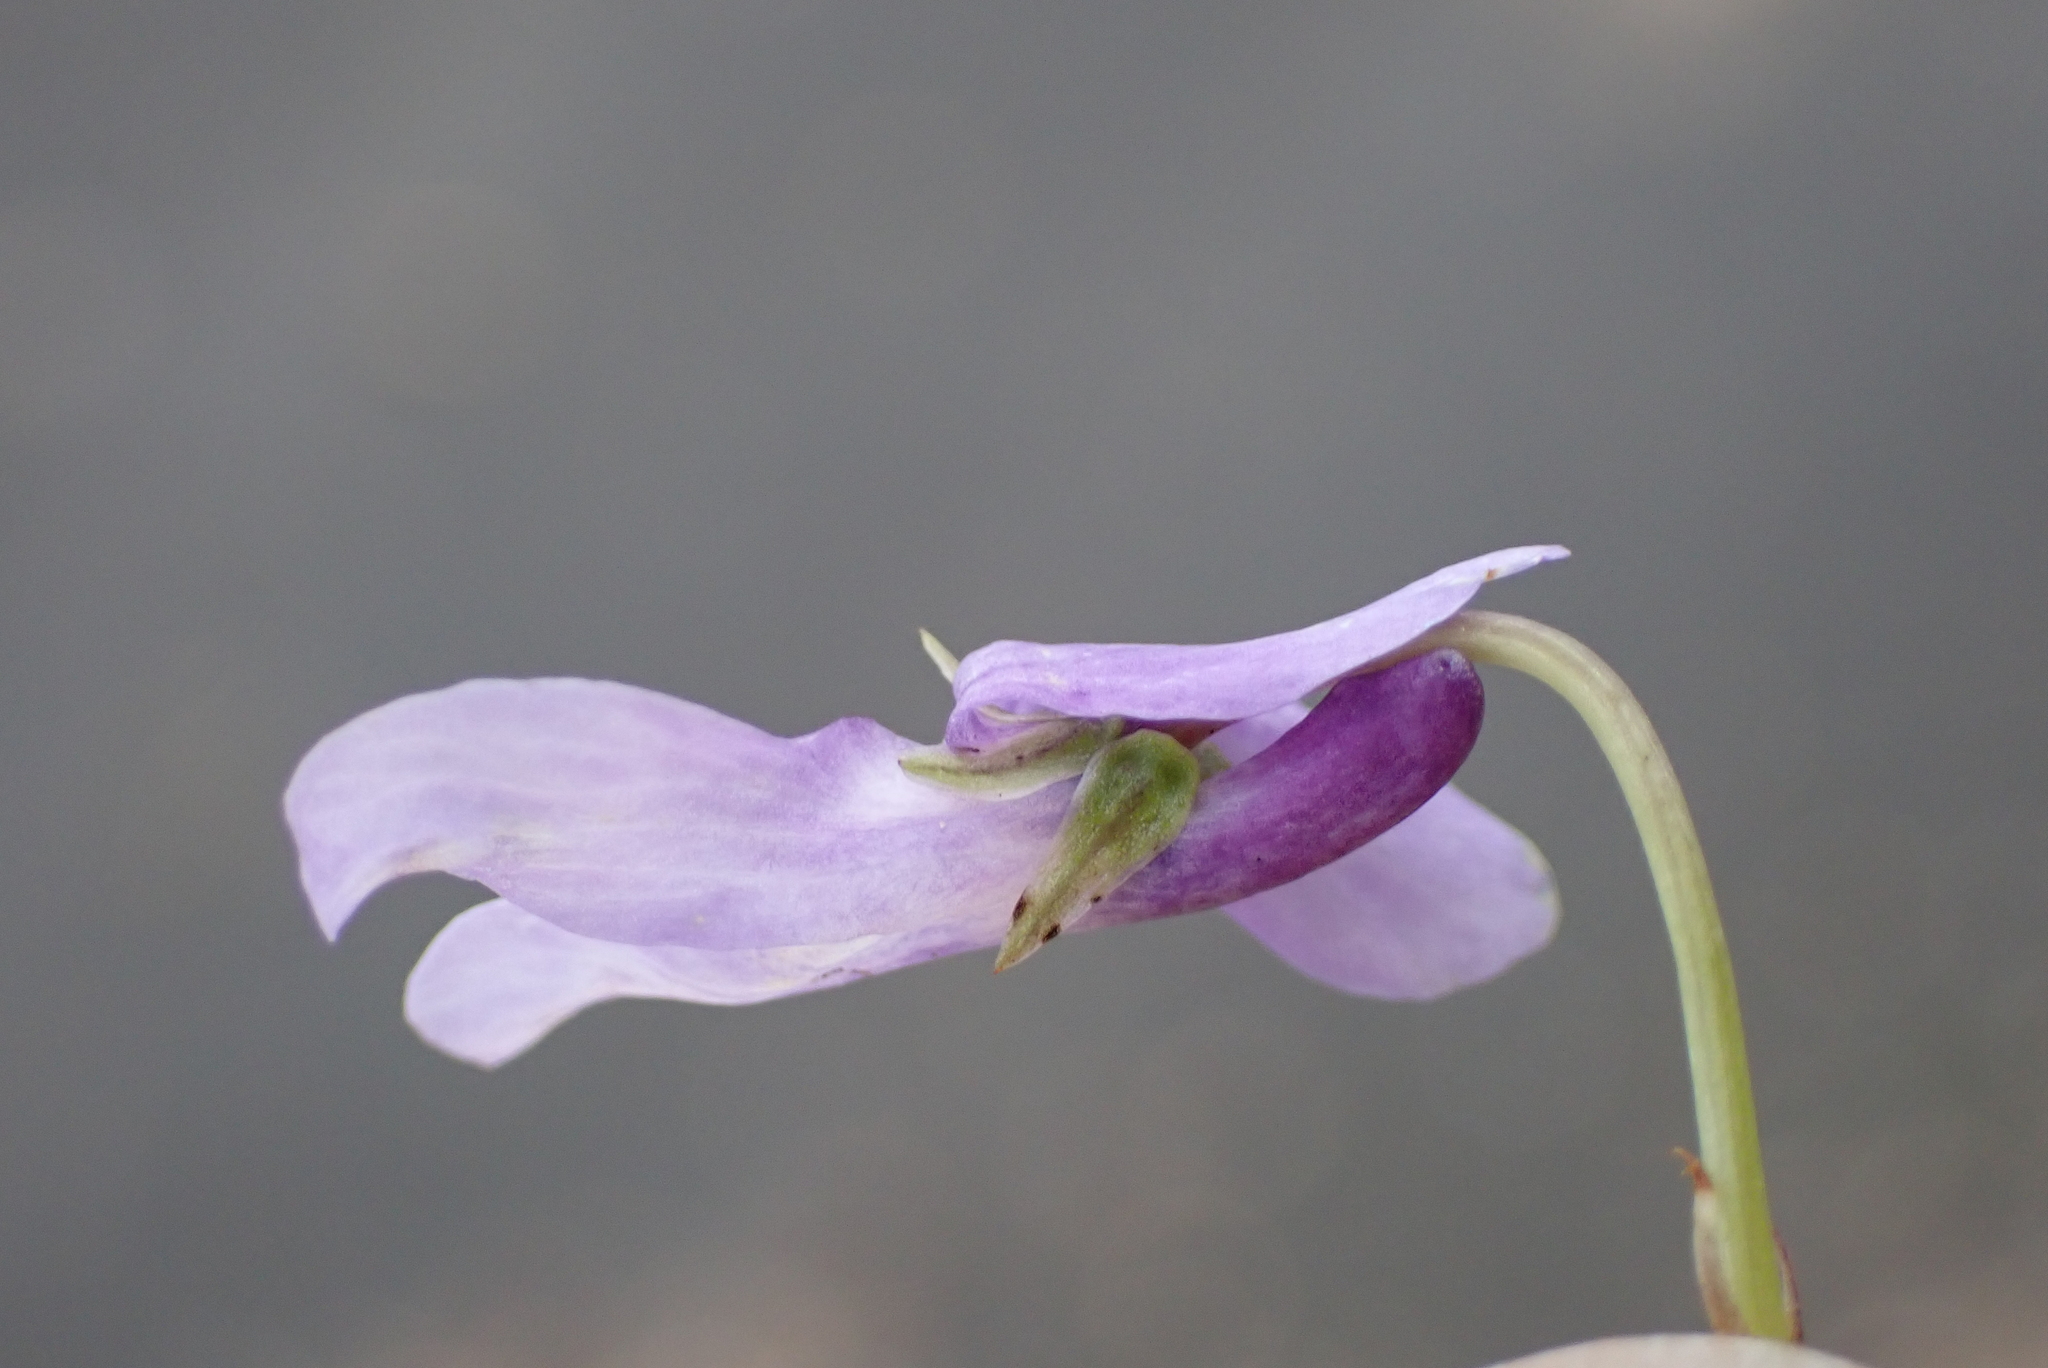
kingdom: Plantae
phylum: Tracheophyta
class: Magnoliopsida
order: Malpighiales
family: Violaceae
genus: Viola
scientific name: Viola reichenbachiana
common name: Early dog-violet
